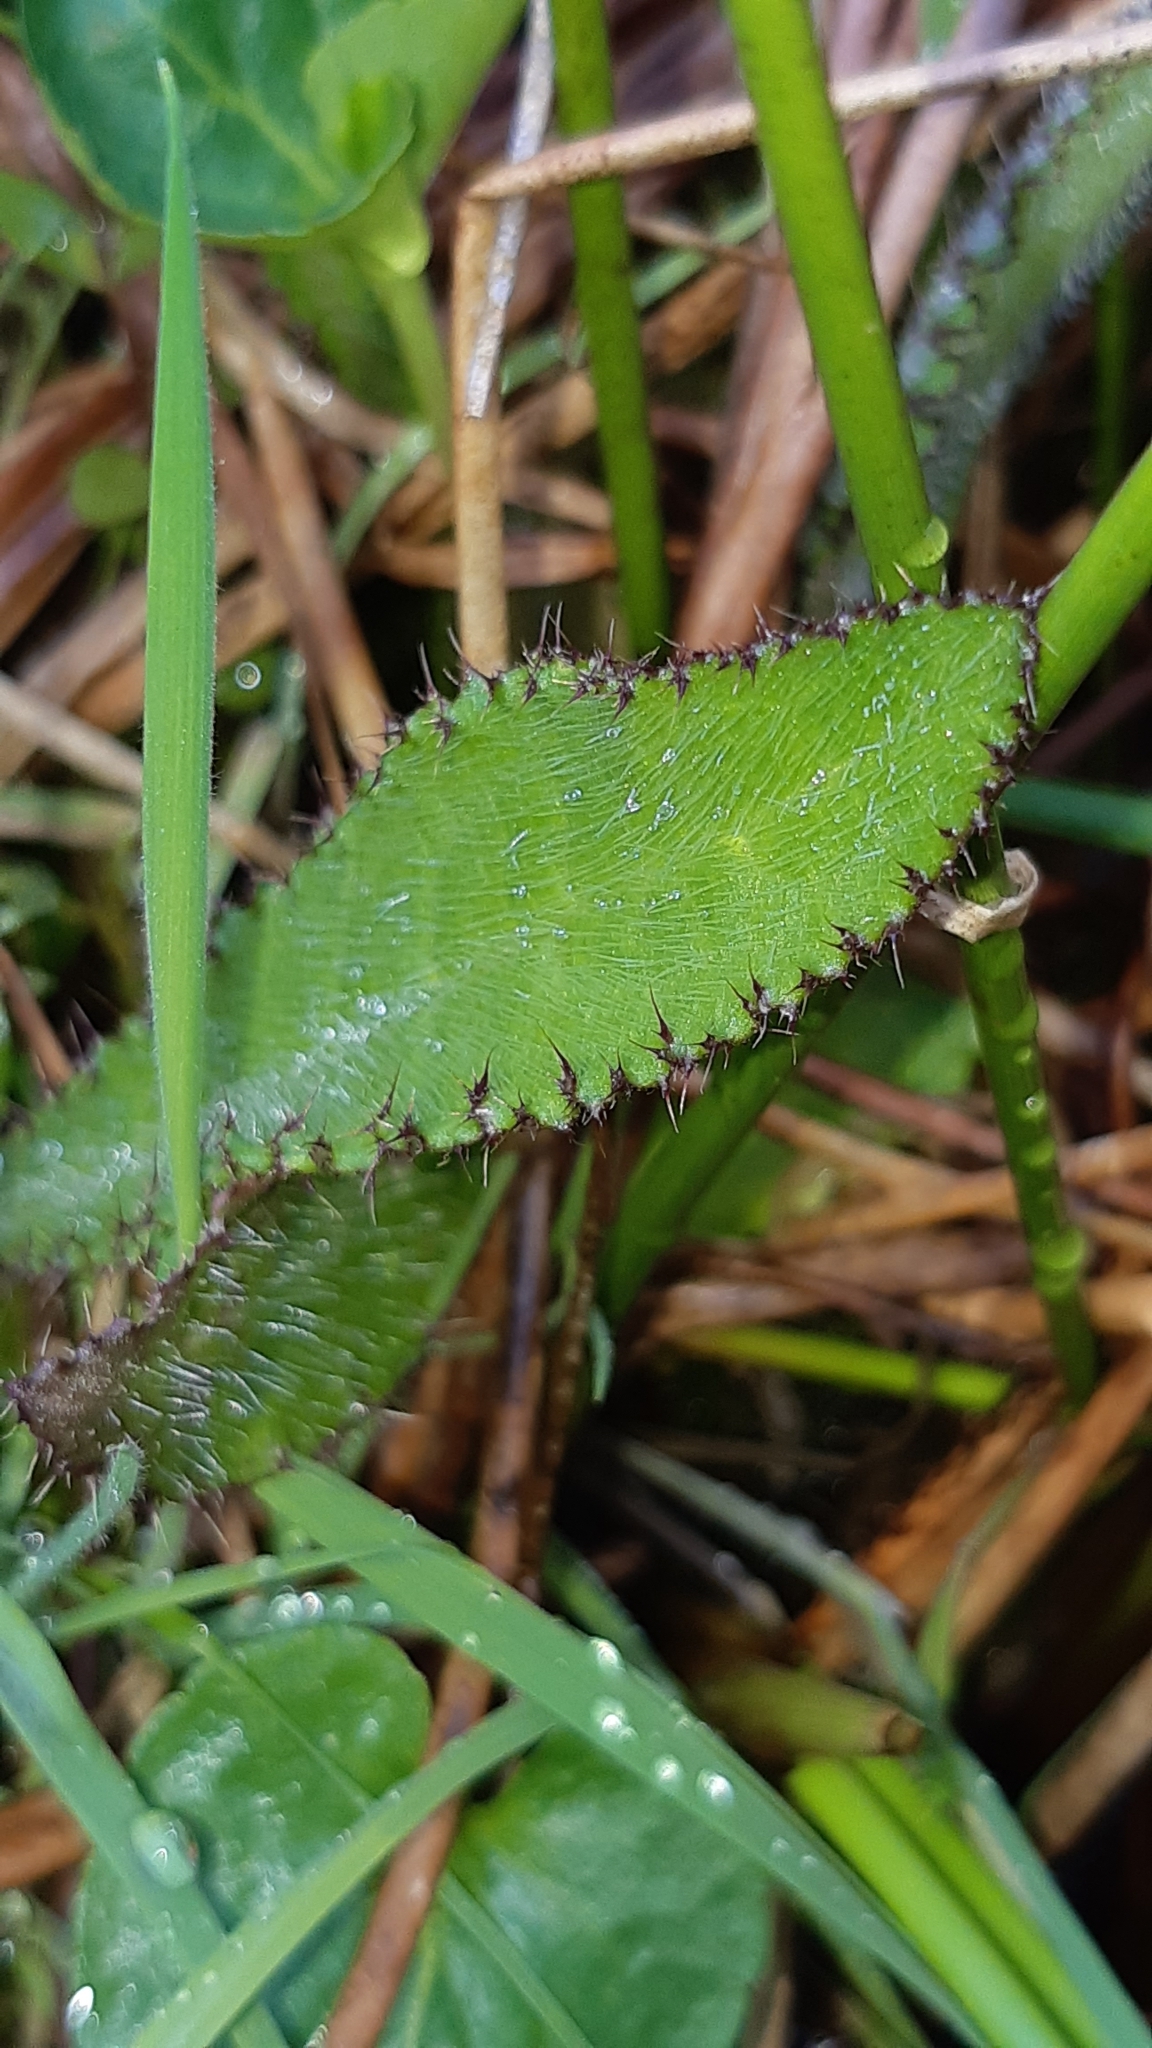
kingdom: Plantae
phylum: Tracheophyta
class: Magnoliopsida
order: Asterales
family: Asteraceae
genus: Cirsium
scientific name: Cirsium palustre
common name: Marsh thistle
